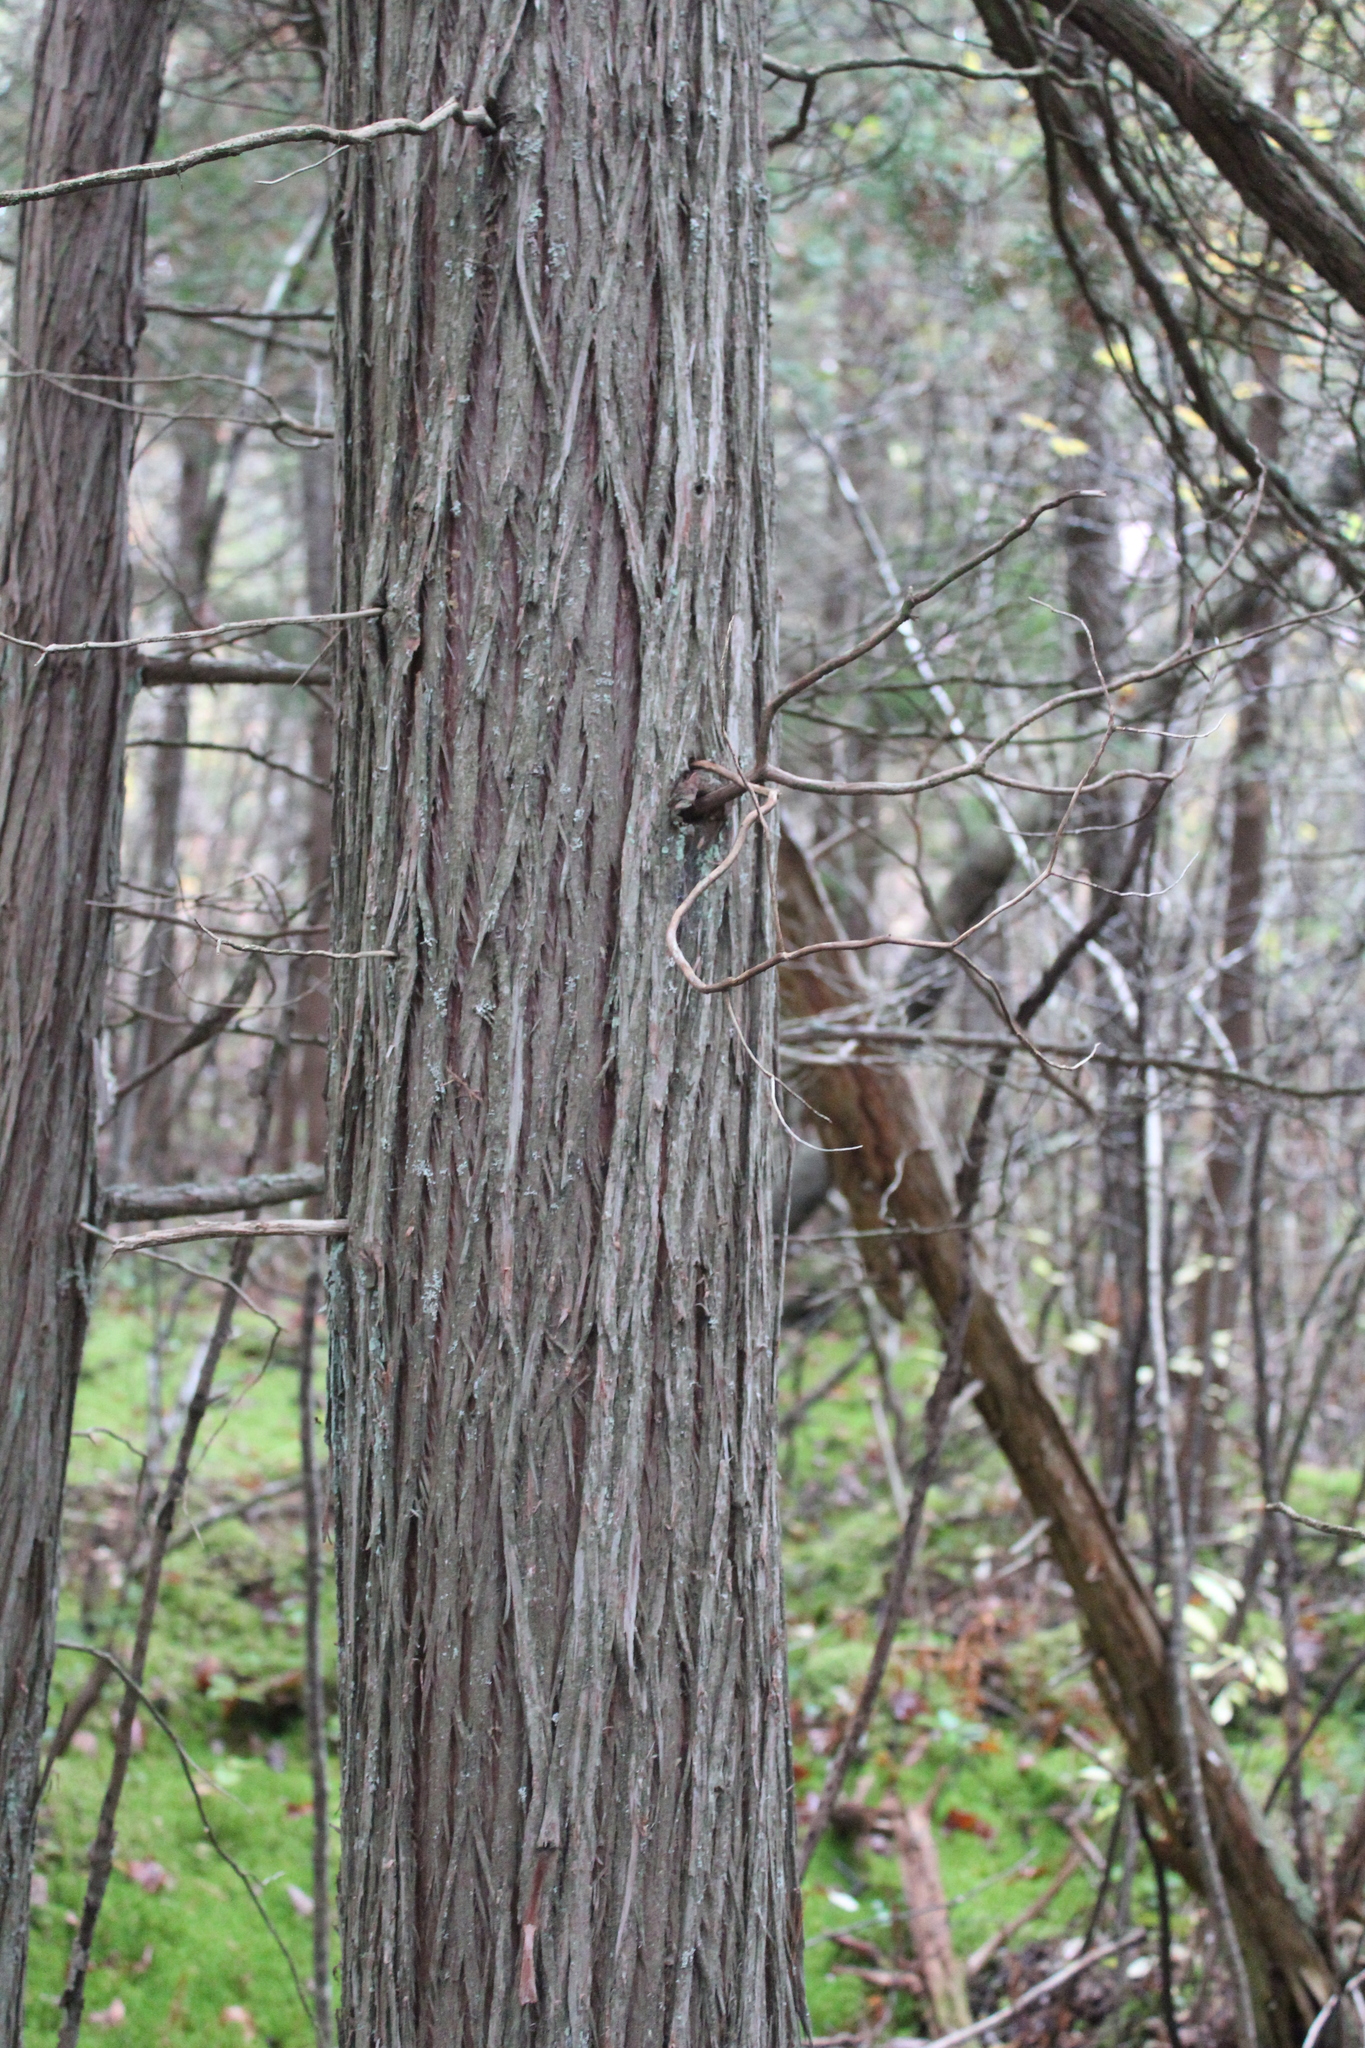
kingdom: Plantae
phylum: Tracheophyta
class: Pinopsida
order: Pinales
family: Cupressaceae
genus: Chamaecyparis
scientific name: Chamaecyparis thyoides
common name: Atlantic white cedar
